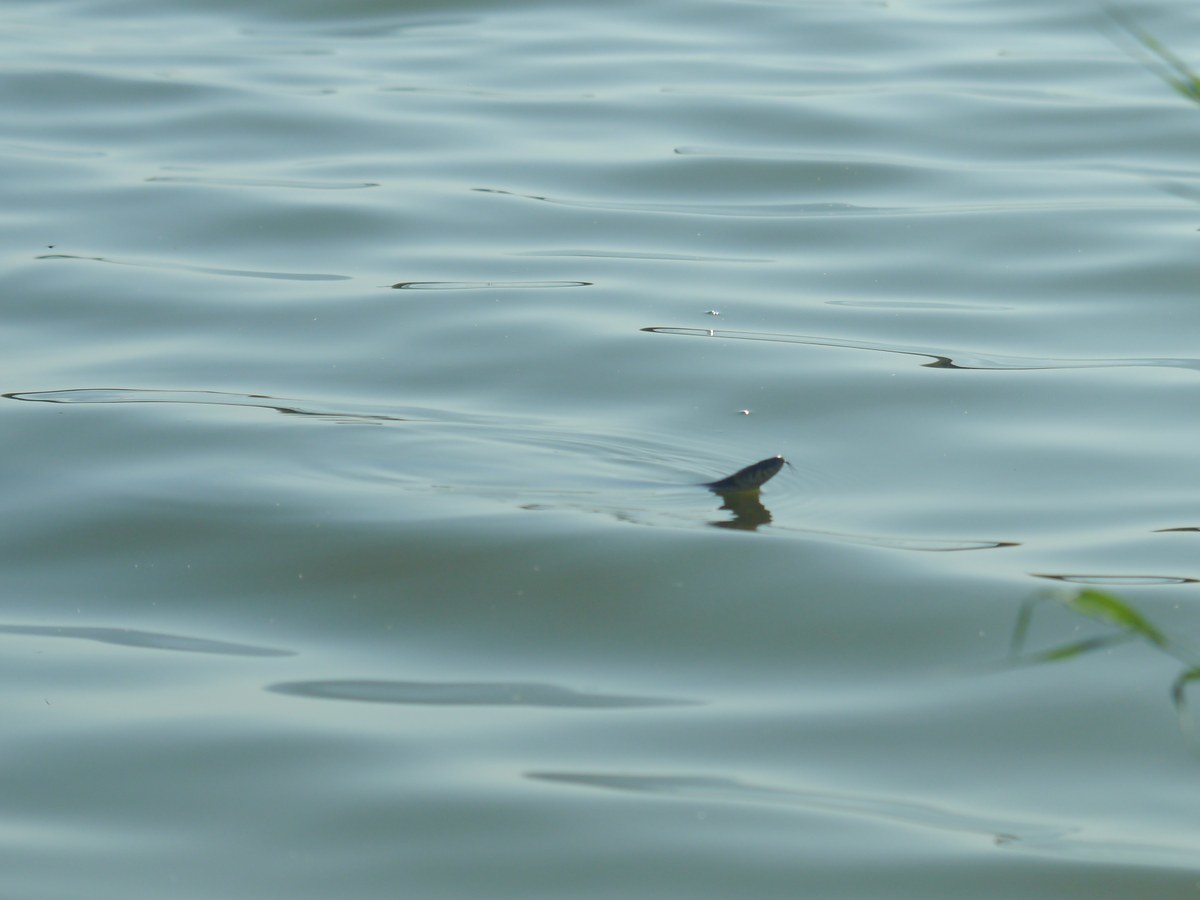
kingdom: Animalia
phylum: Chordata
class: Squamata
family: Colubridae
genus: Natrix
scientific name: Natrix natrix
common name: Grass snake
